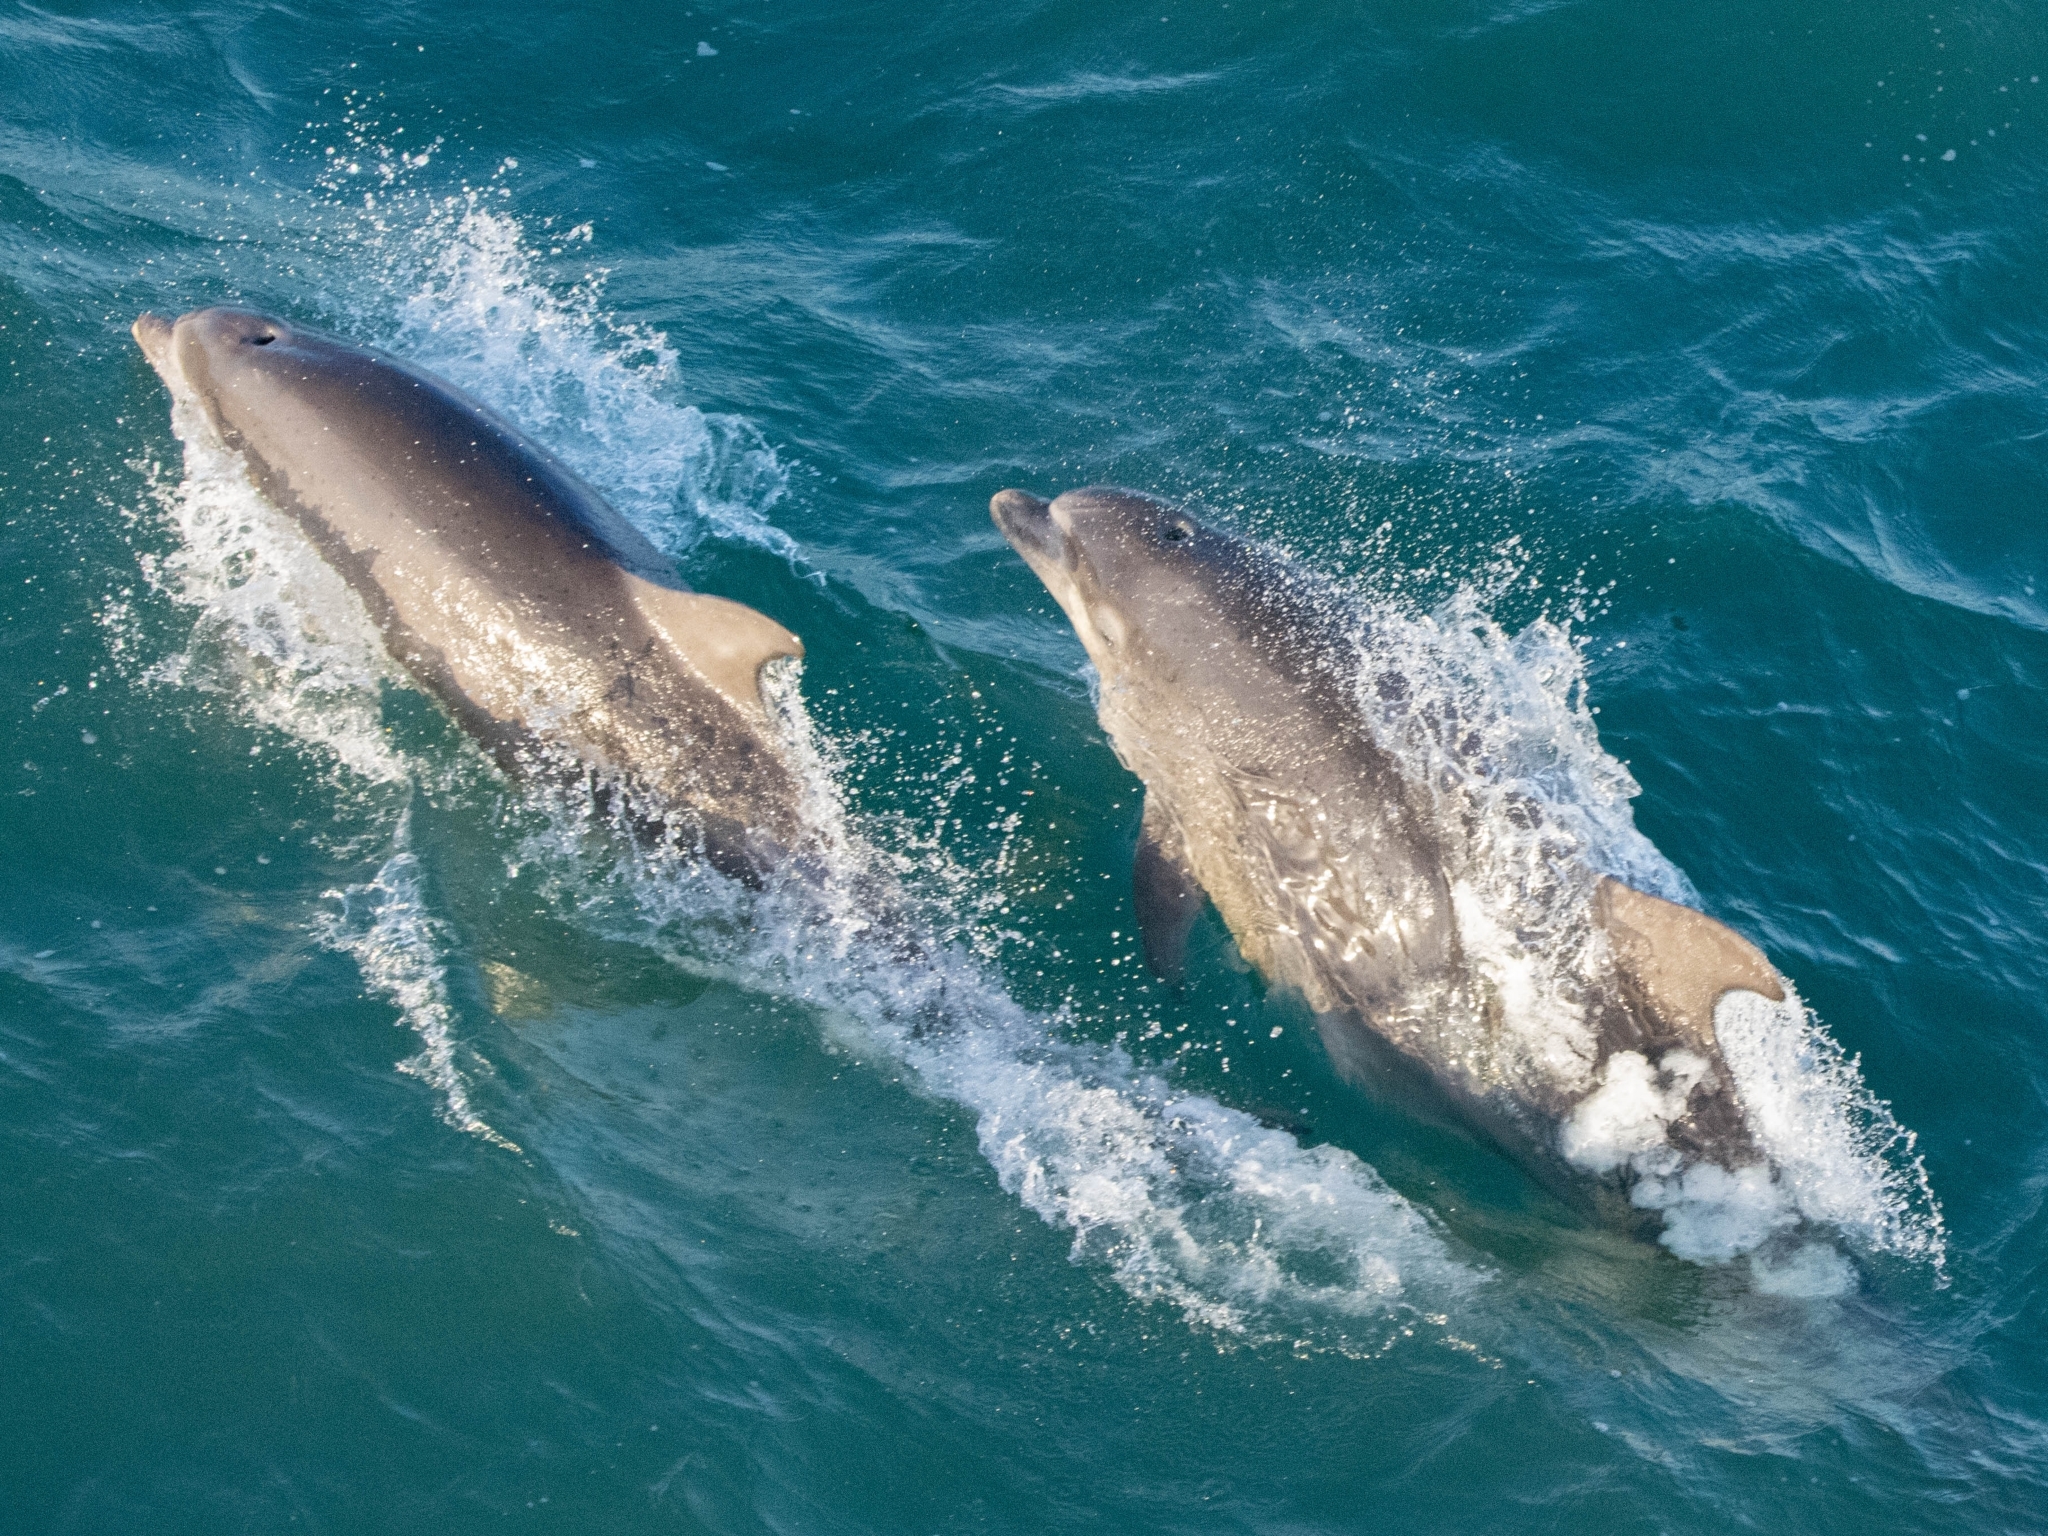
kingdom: Animalia
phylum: Chordata
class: Mammalia
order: Cetacea
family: Delphinidae
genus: Tursiops
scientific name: Tursiops truncatus
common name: Bottlenose dolphin
